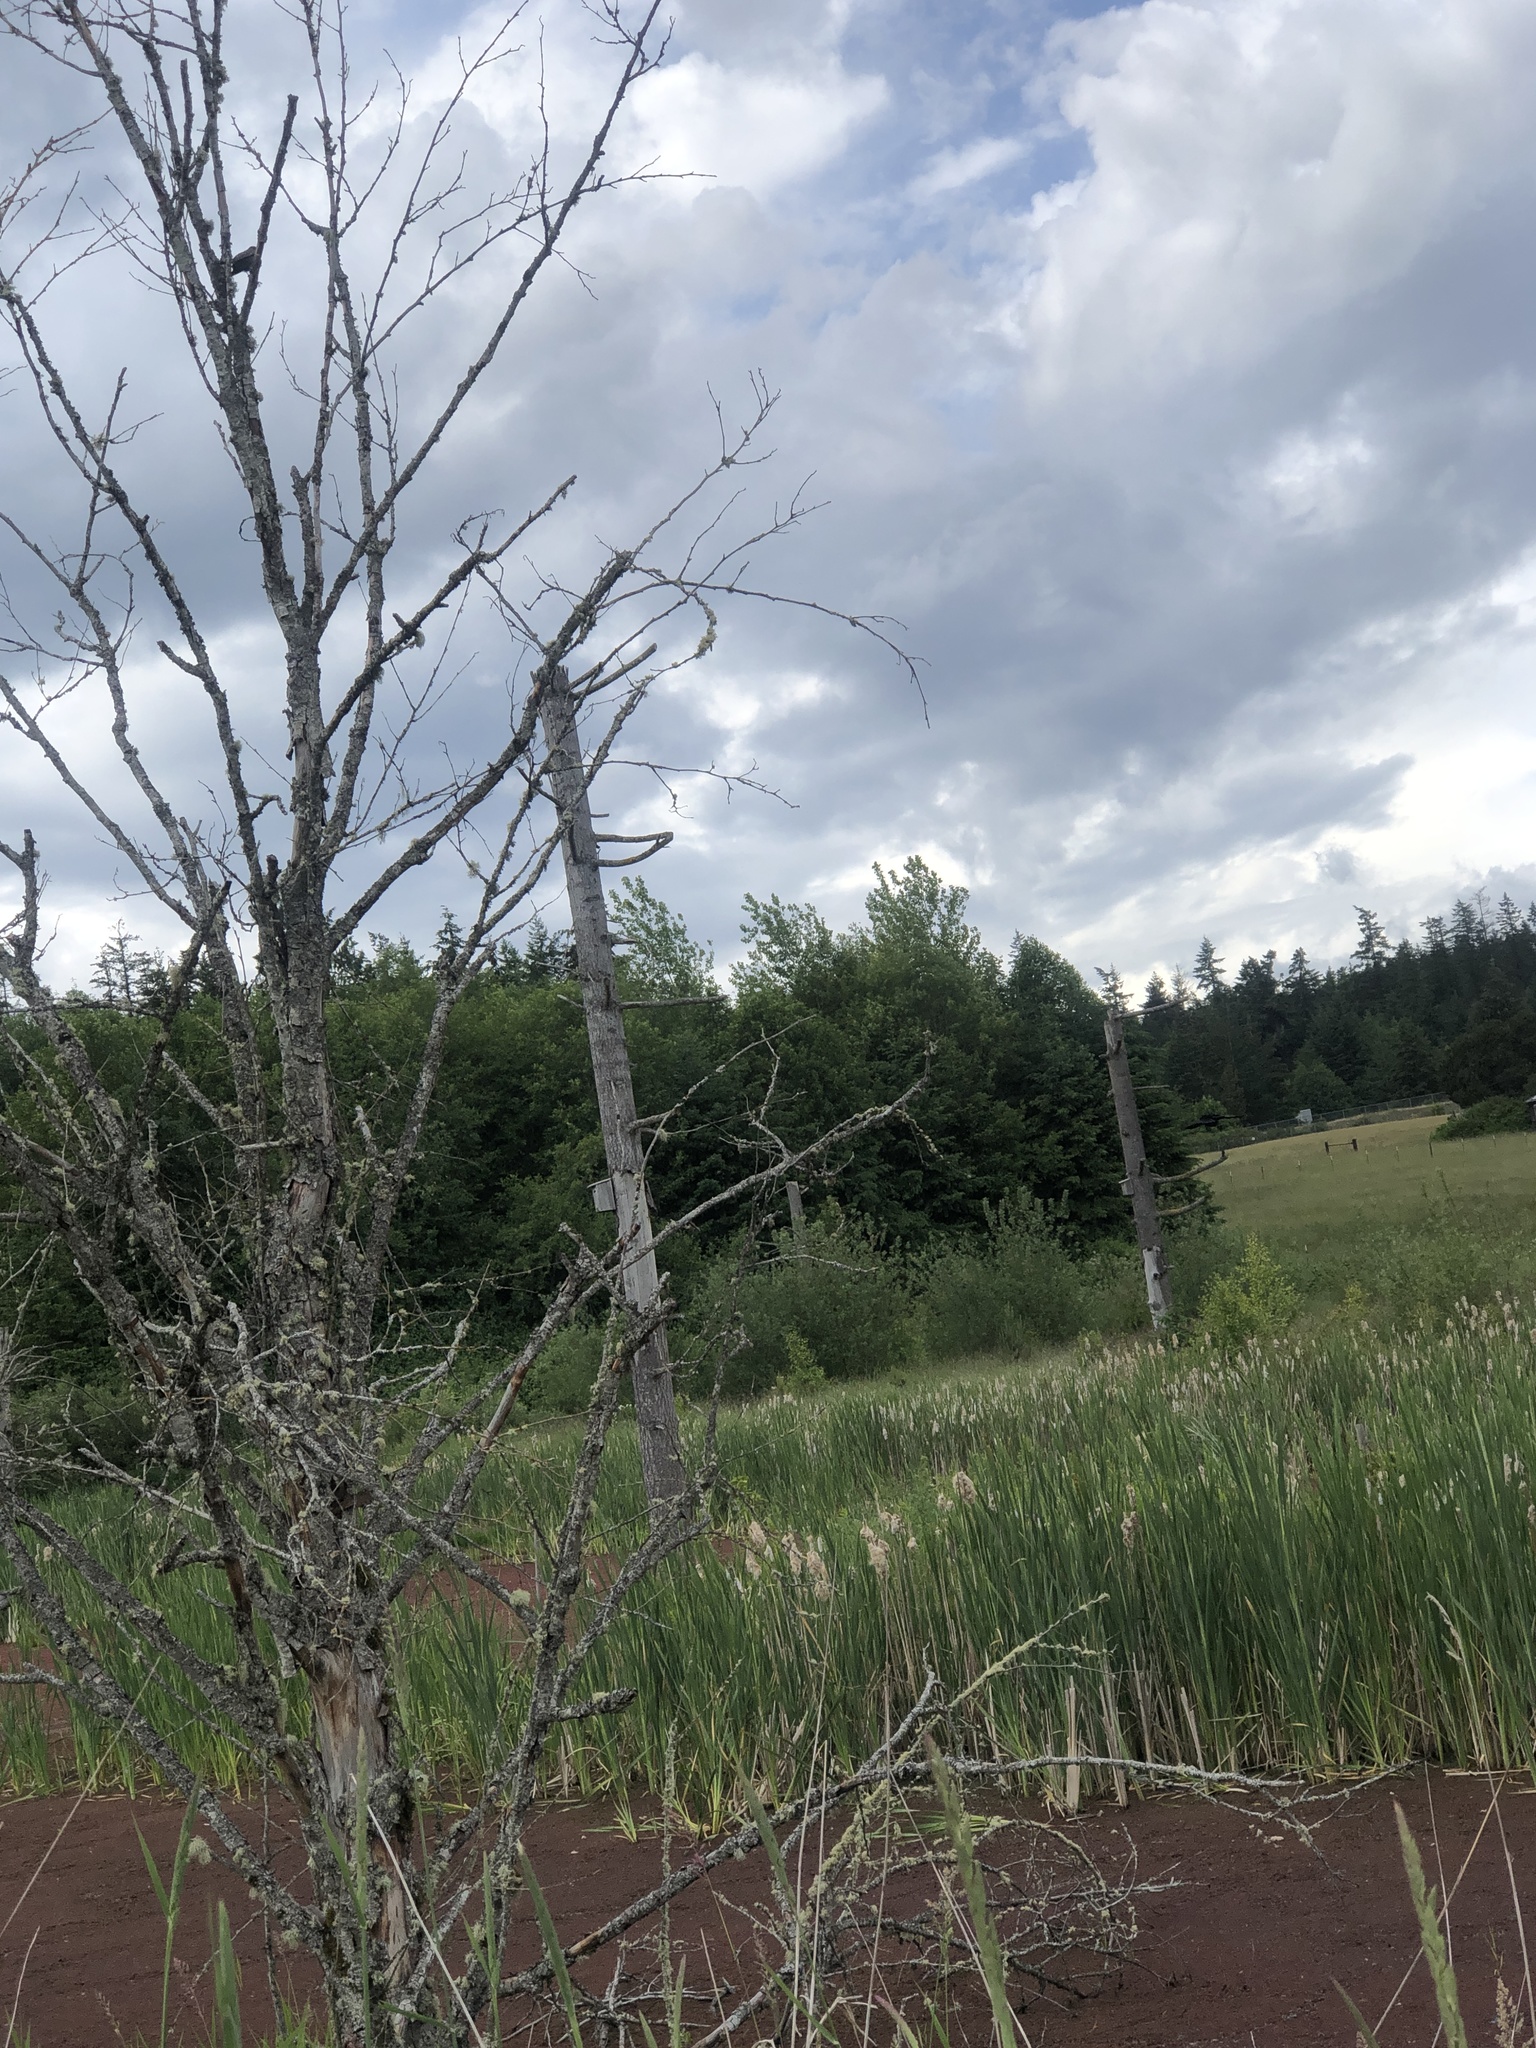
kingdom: Animalia
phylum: Chordata
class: Aves
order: Passeriformes
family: Icteridae
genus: Agelaius
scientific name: Agelaius phoeniceus
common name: Red-winged blackbird
